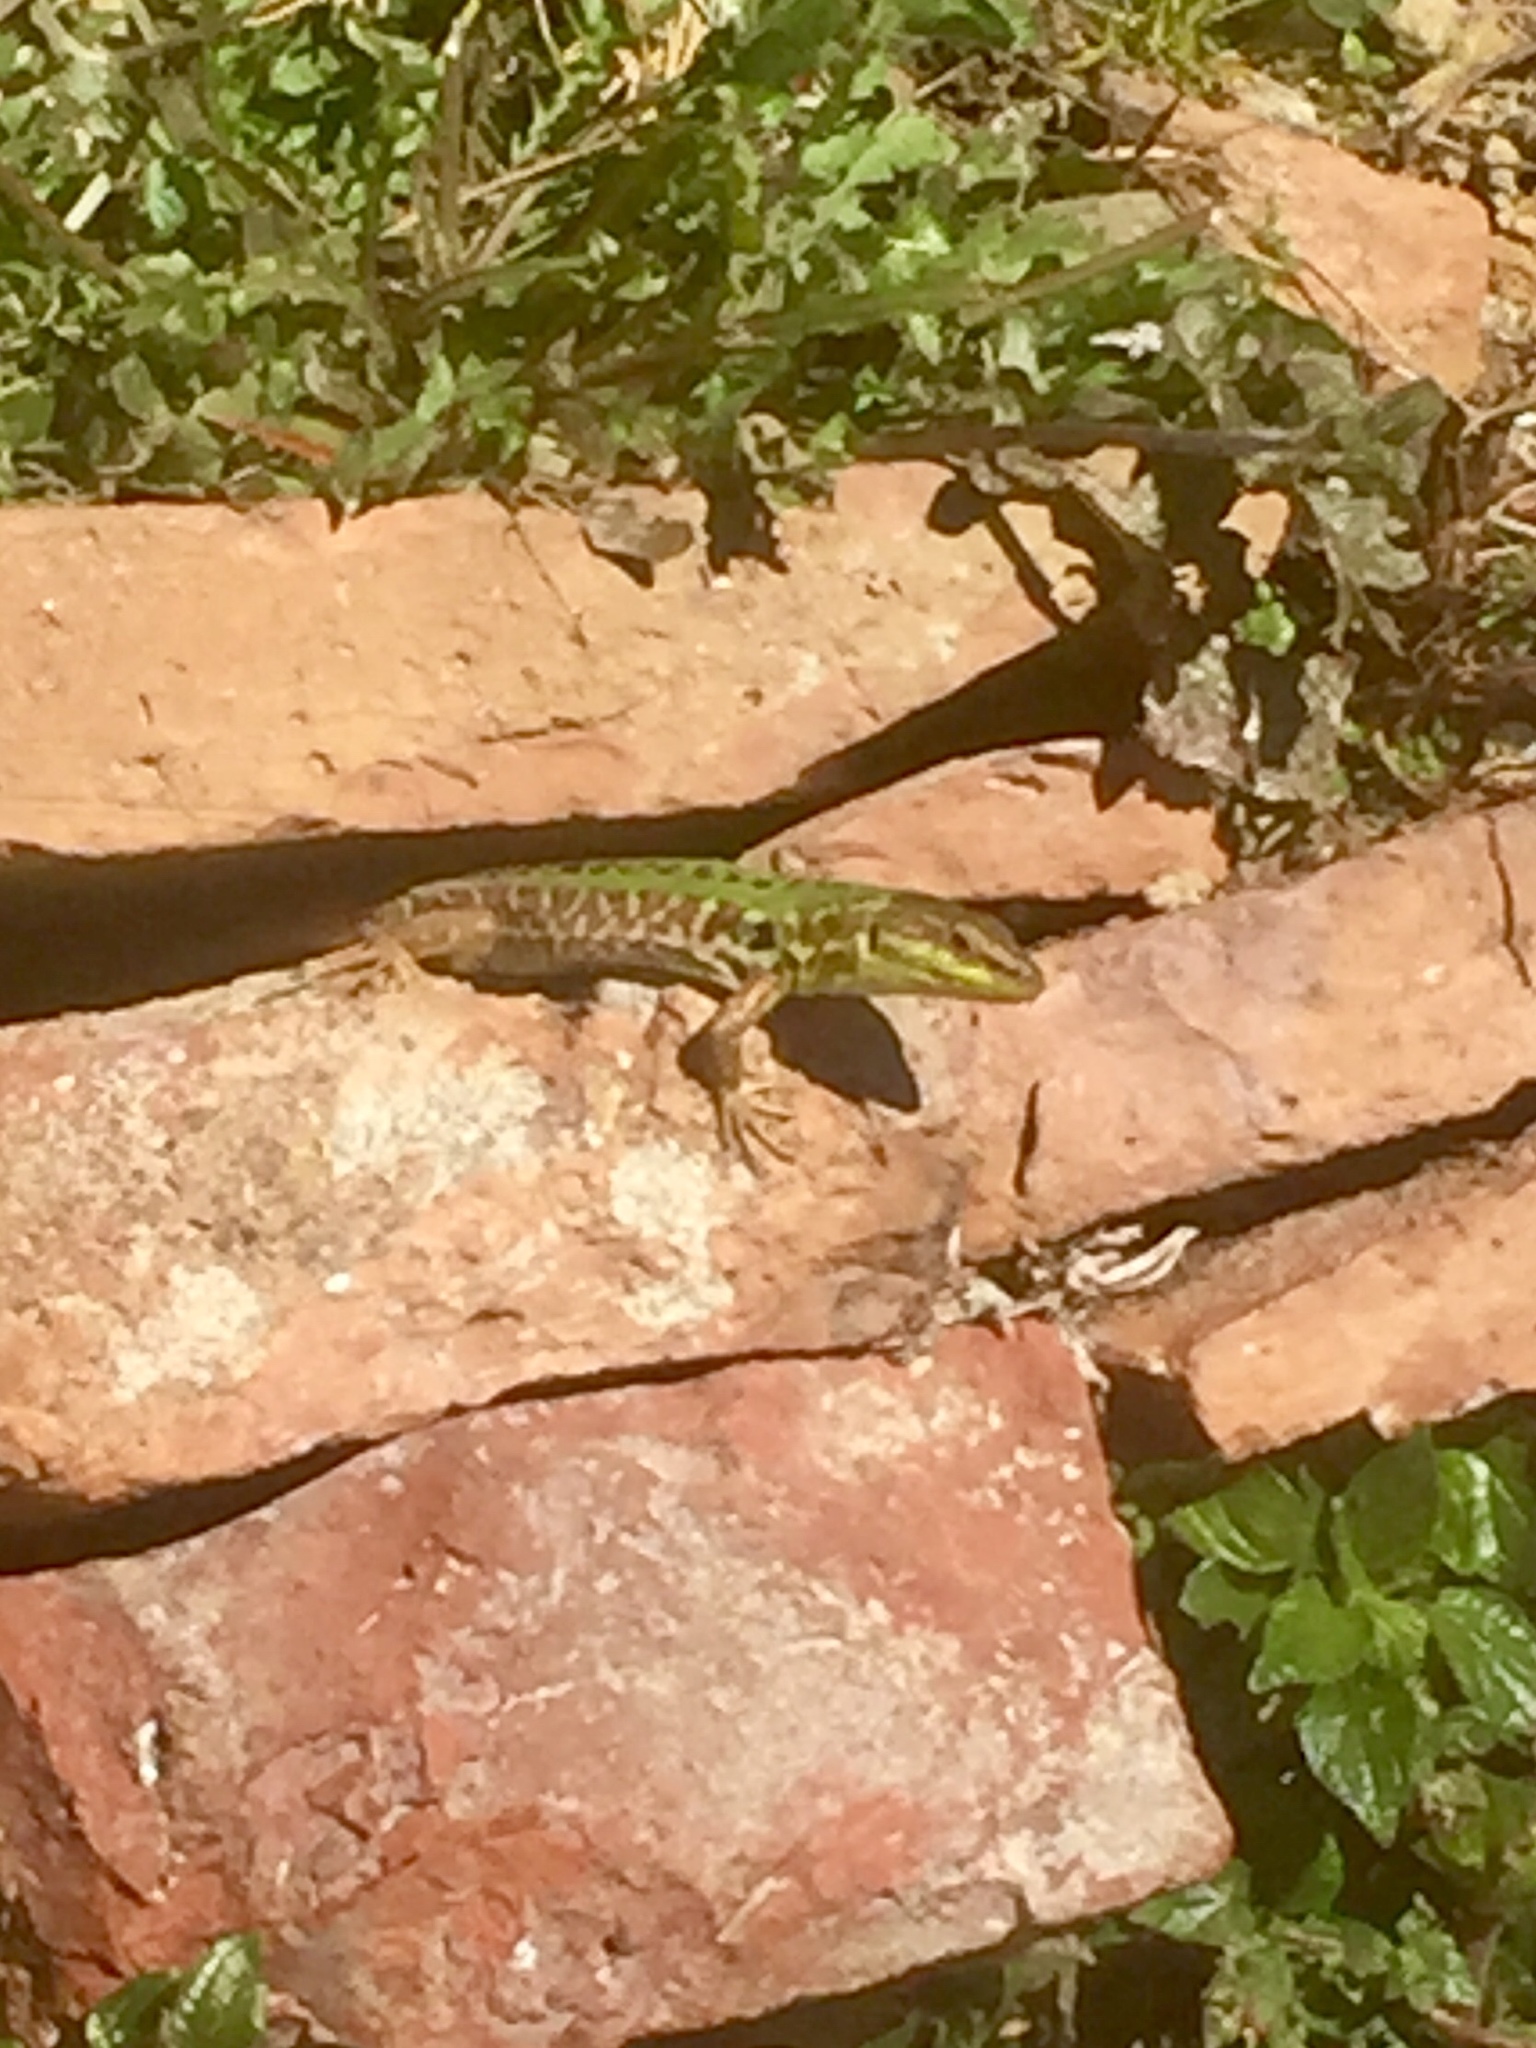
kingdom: Animalia
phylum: Chordata
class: Squamata
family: Lacertidae
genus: Podarcis
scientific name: Podarcis siculus
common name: Italian wall lizard
